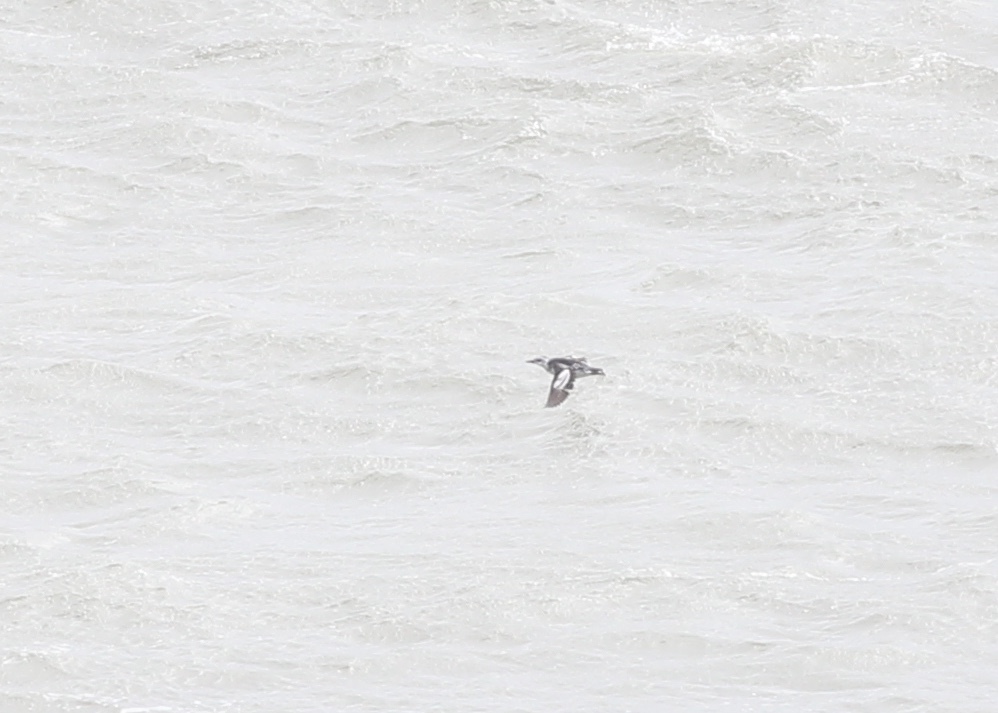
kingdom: Animalia
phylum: Chordata
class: Aves
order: Charadriiformes
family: Alcidae
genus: Cepphus
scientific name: Cepphus grylle
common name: Black guillemot
